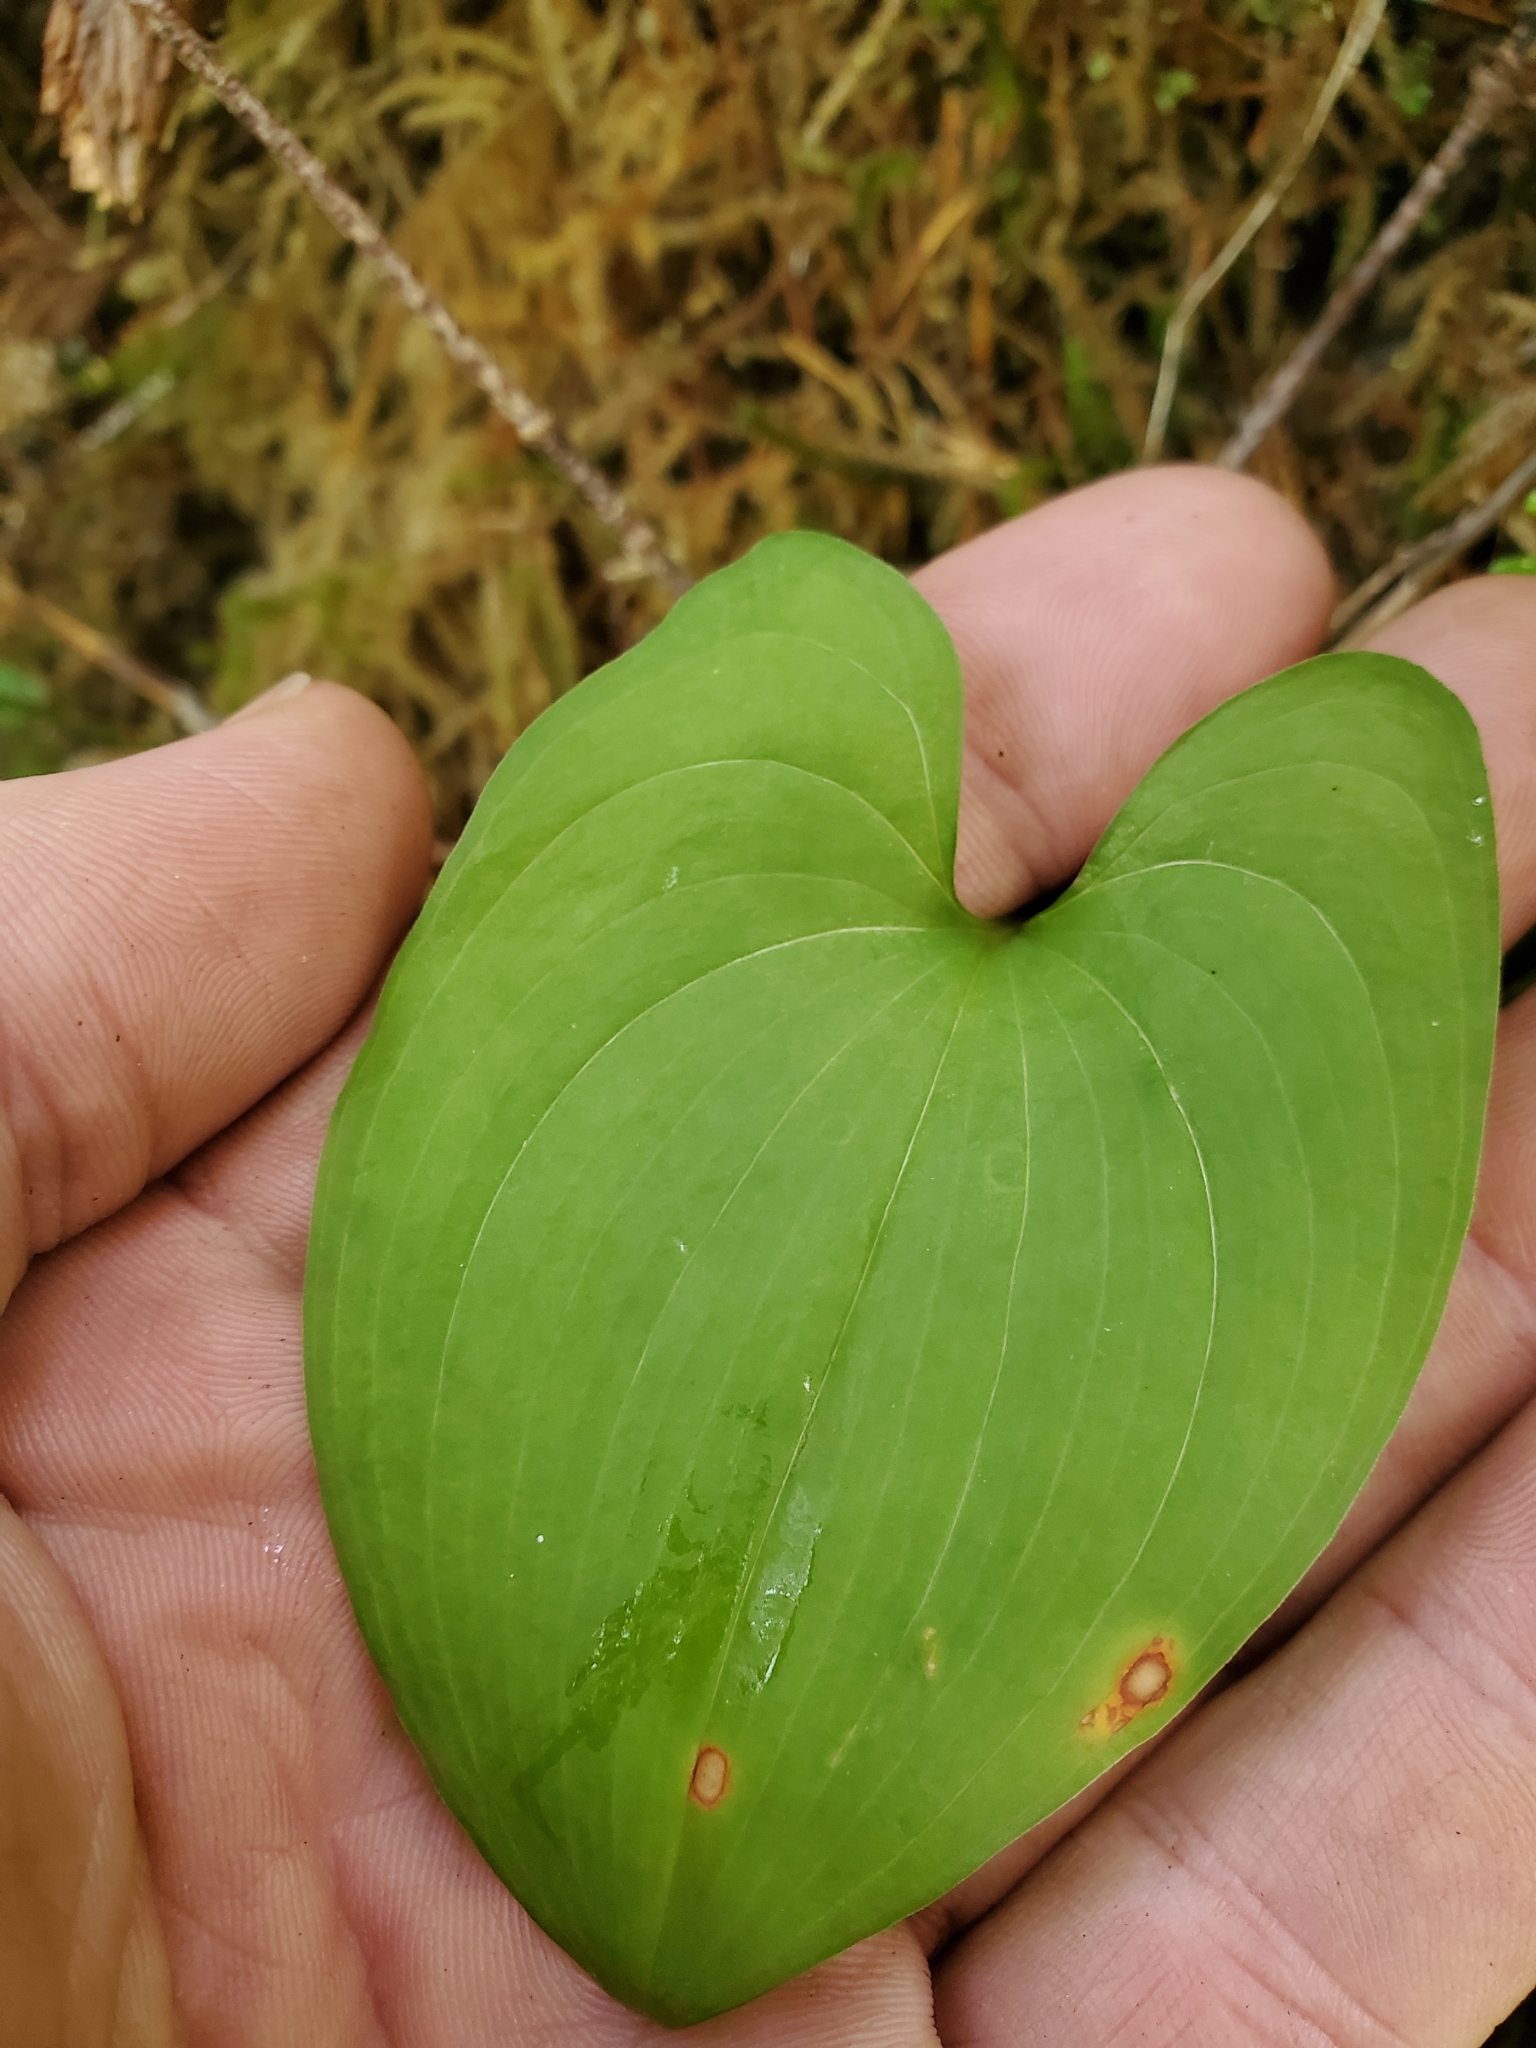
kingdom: Plantae
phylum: Tracheophyta
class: Liliopsida
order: Asparagales
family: Asparagaceae
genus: Maianthemum
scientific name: Maianthemum dilatatum
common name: False lily-of-the-valley
